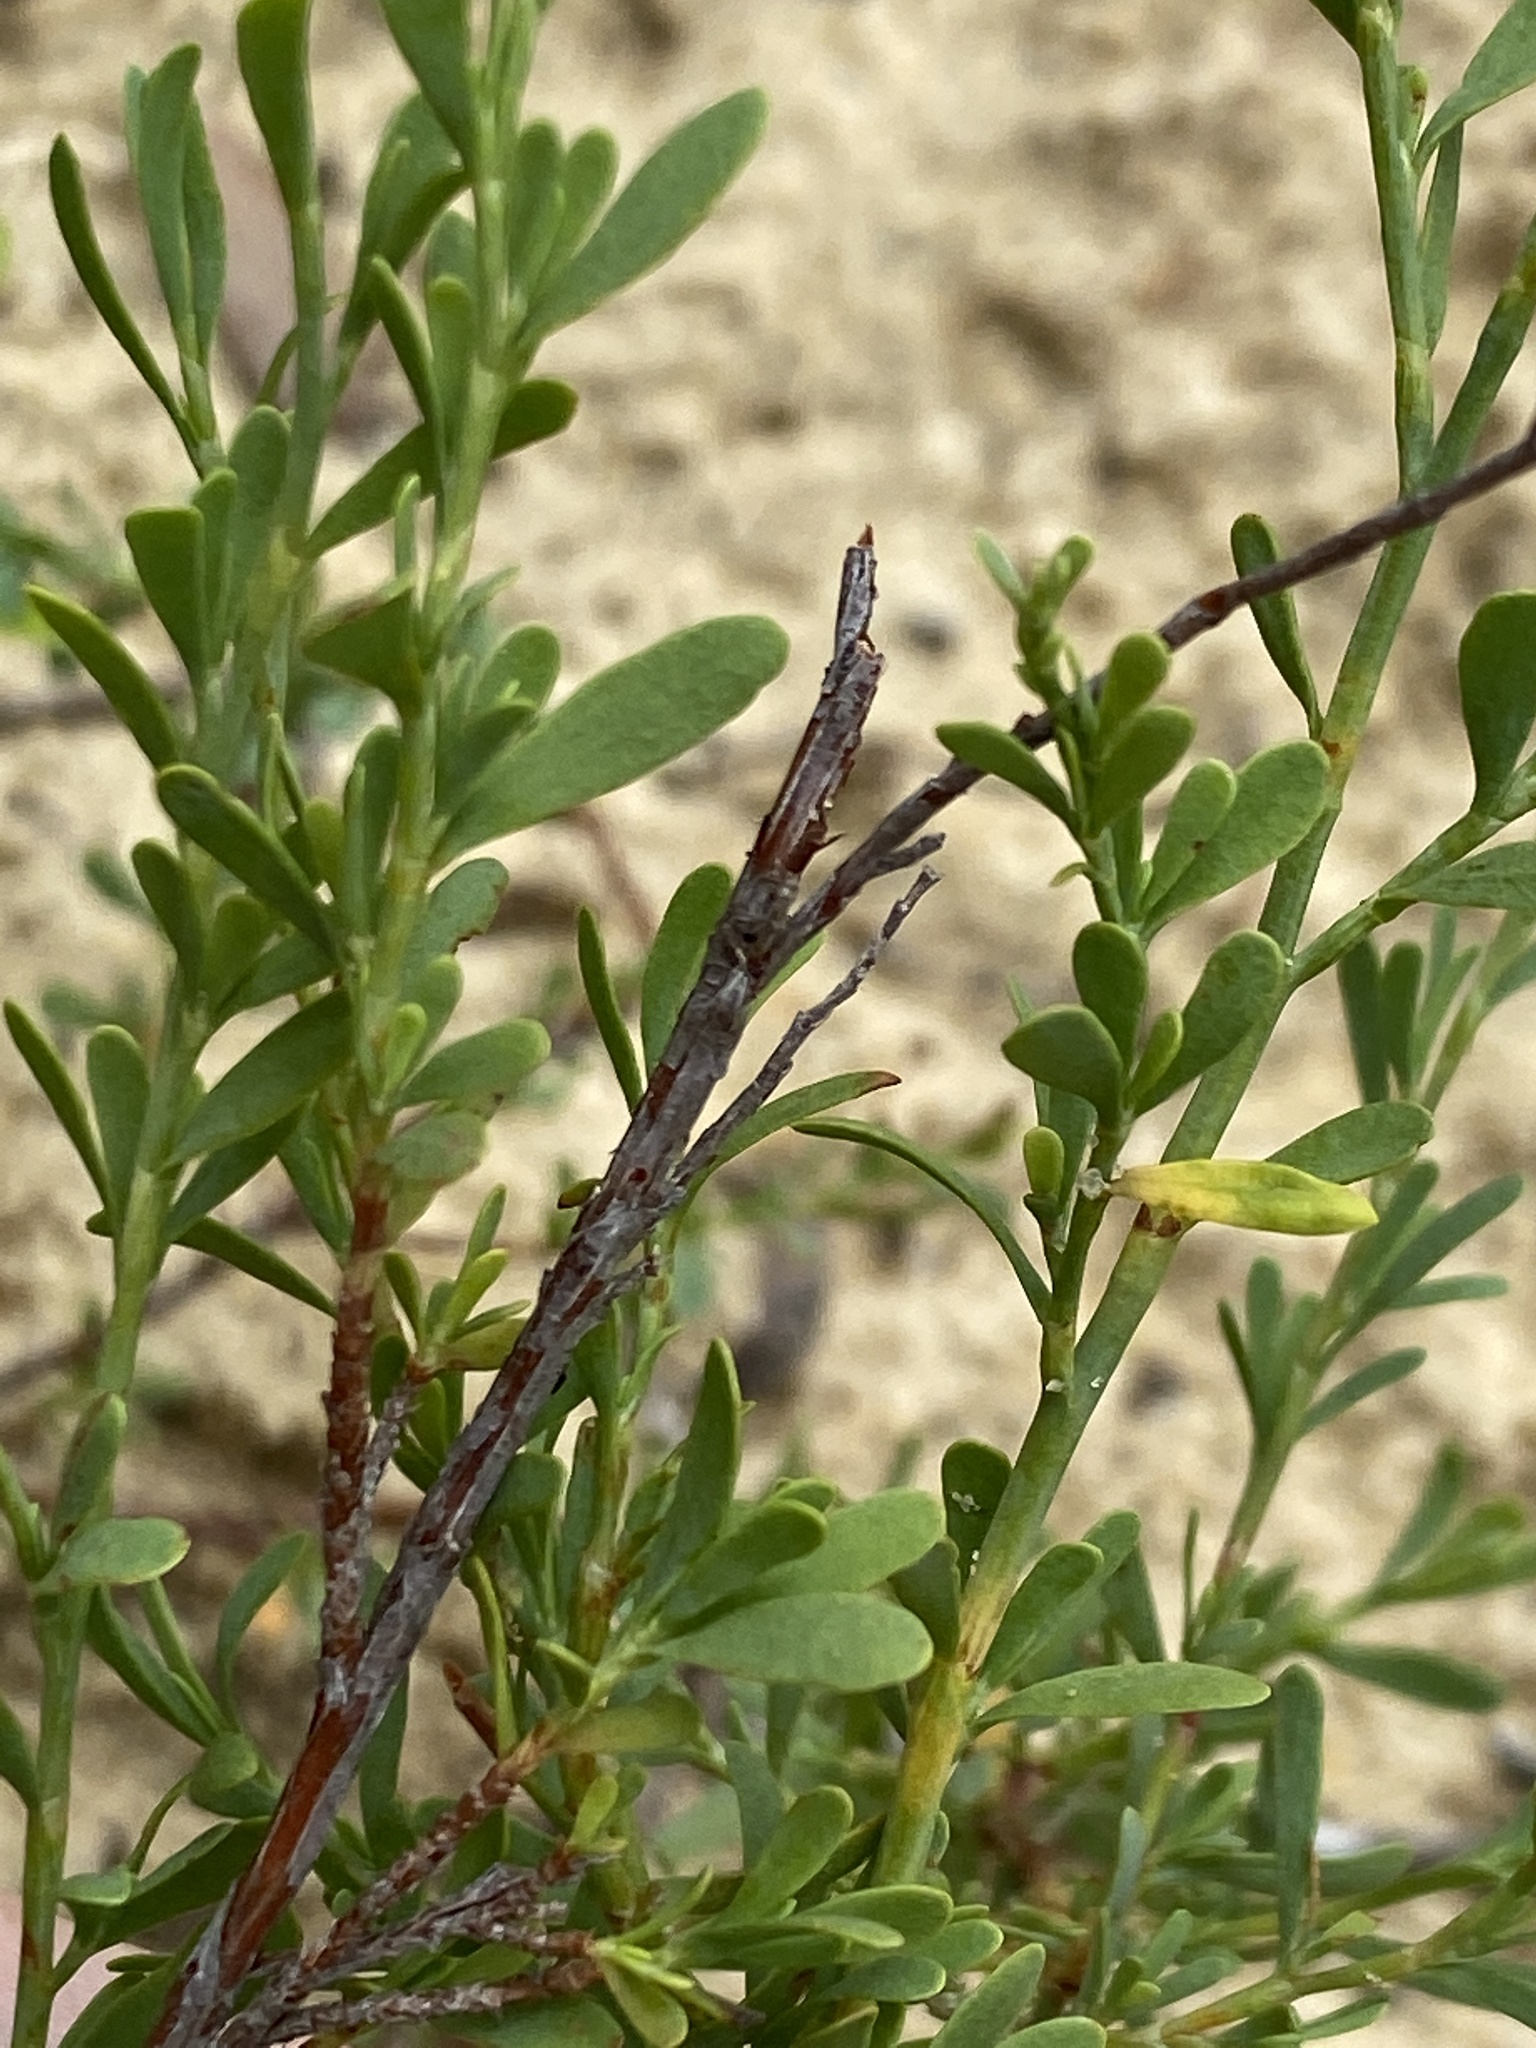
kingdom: Plantae
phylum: Tracheophyta
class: Magnoliopsida
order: Caryophyllales
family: Polygonaceae
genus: Polygonella
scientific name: Polygonella polygama
